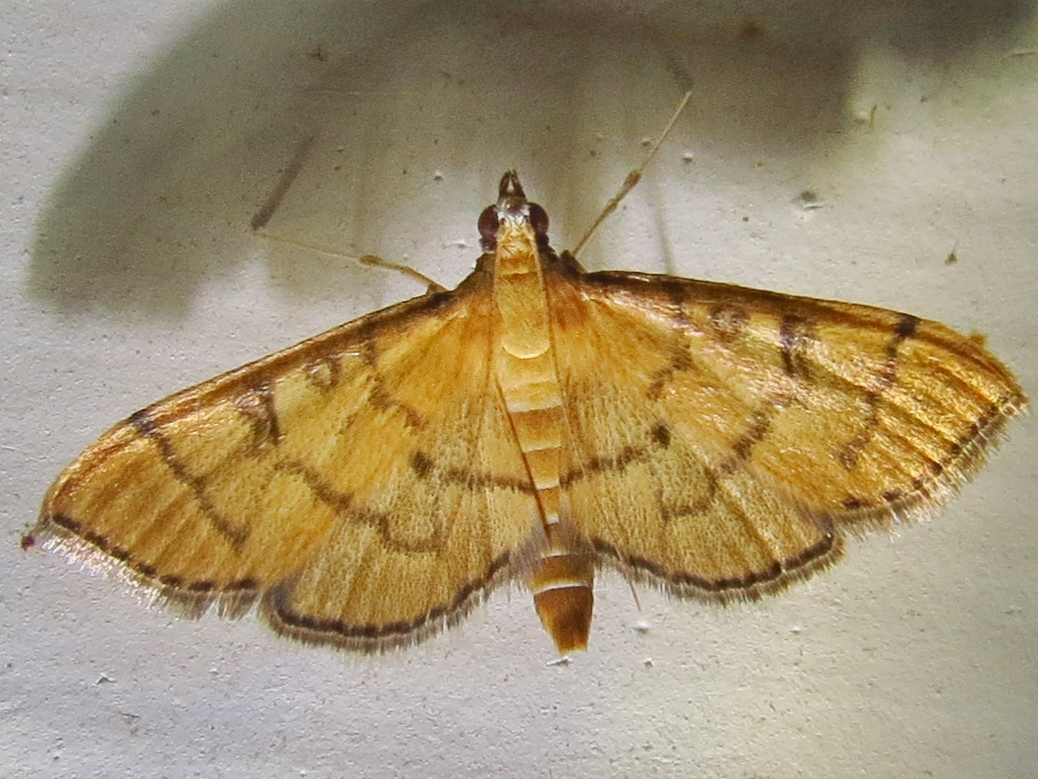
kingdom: Animalia
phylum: Arthropoda
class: Insecta
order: Lepidoptera
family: Crambidae
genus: Lamprosema
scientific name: Lamprosema Blepharomastix ranalis
